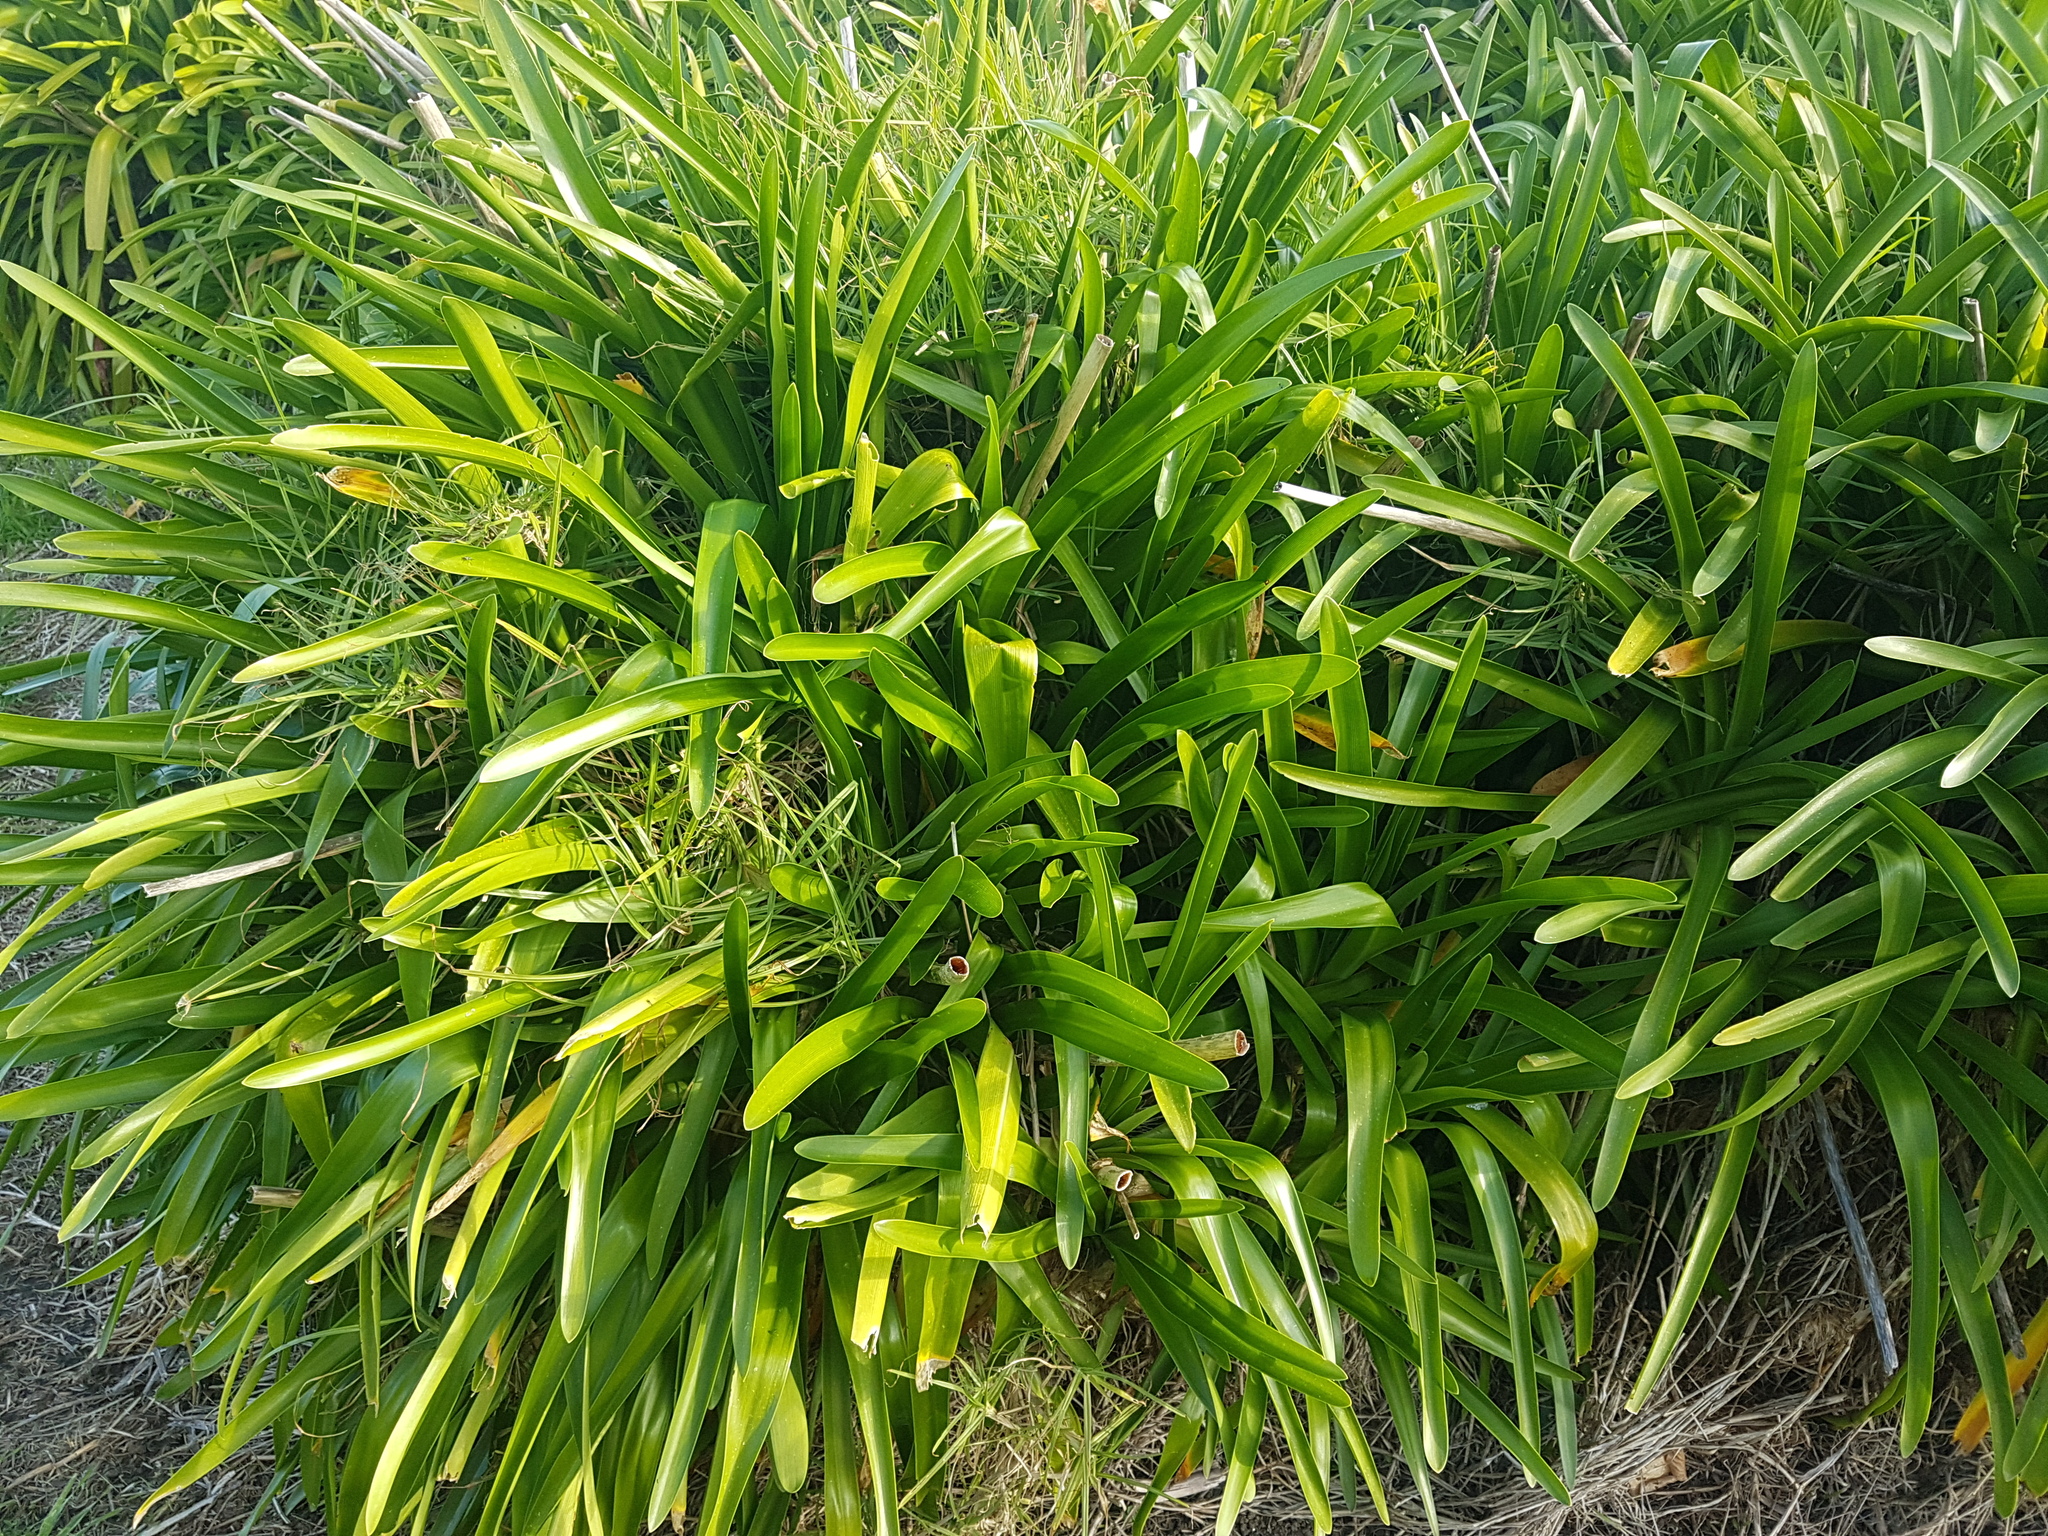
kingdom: Plantae
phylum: Tracheophyta
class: Liliopsida
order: Asparagales
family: Amaryllidaceae
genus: Agapanthus
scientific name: Agapanthus praecox
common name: African-lily
